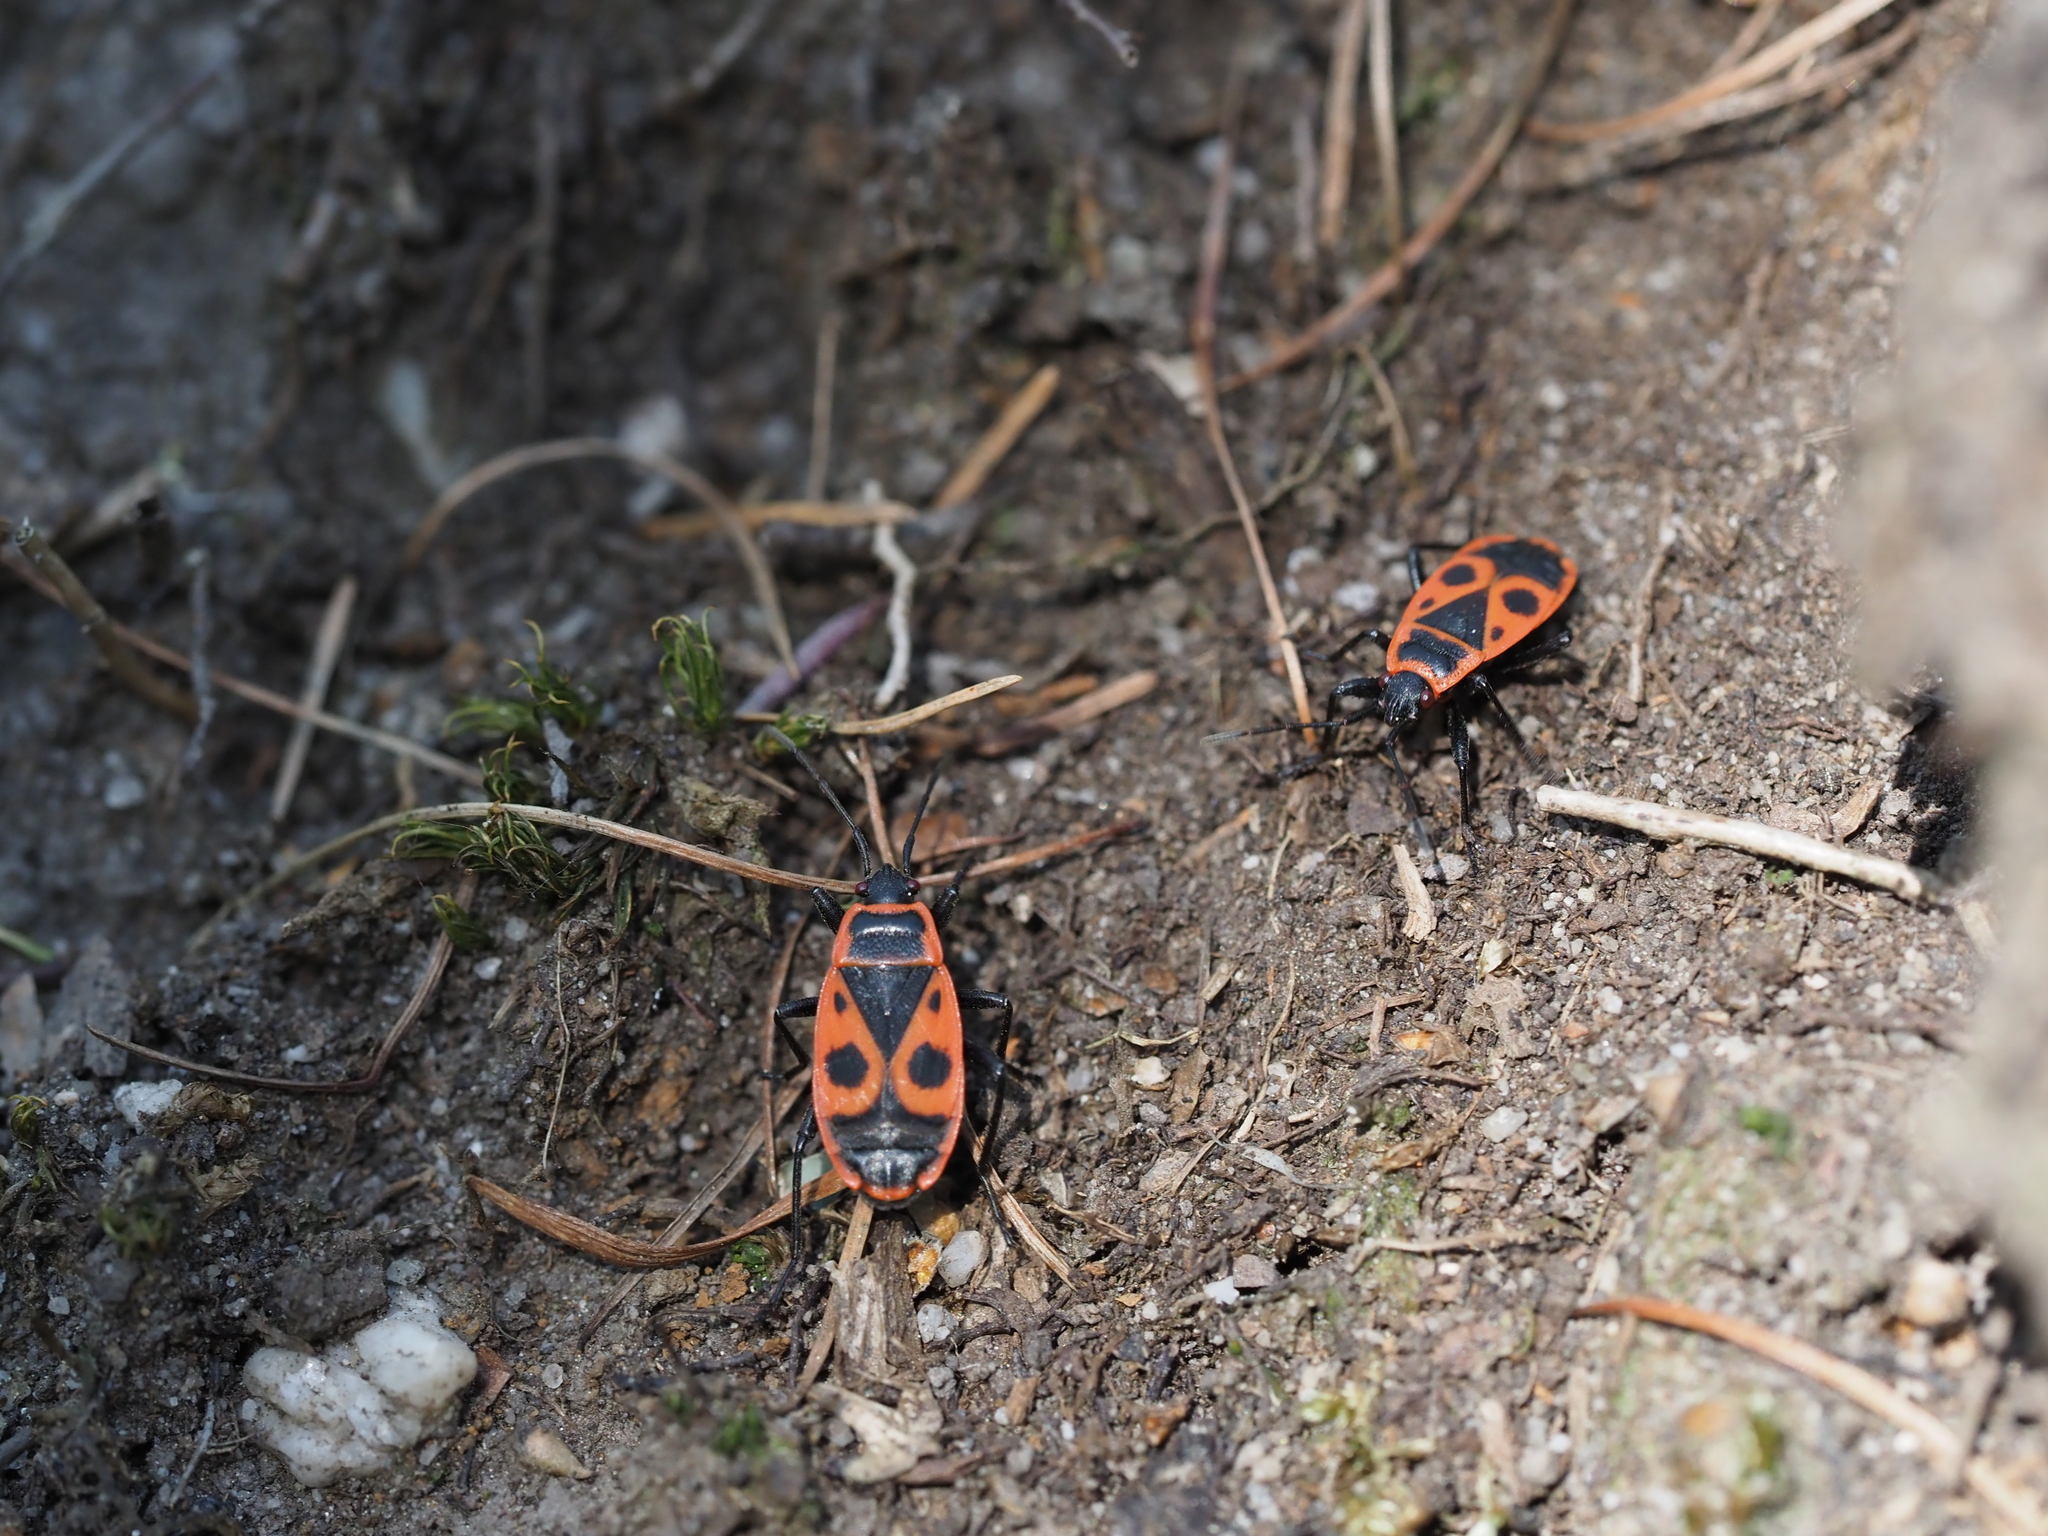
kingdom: Animalia
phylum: Arthropoda
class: Insecta
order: Hemiptera
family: Pyrrhocoridae
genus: Pyrrhocoris
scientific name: Pyrrhocoris apterus
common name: Firebug
